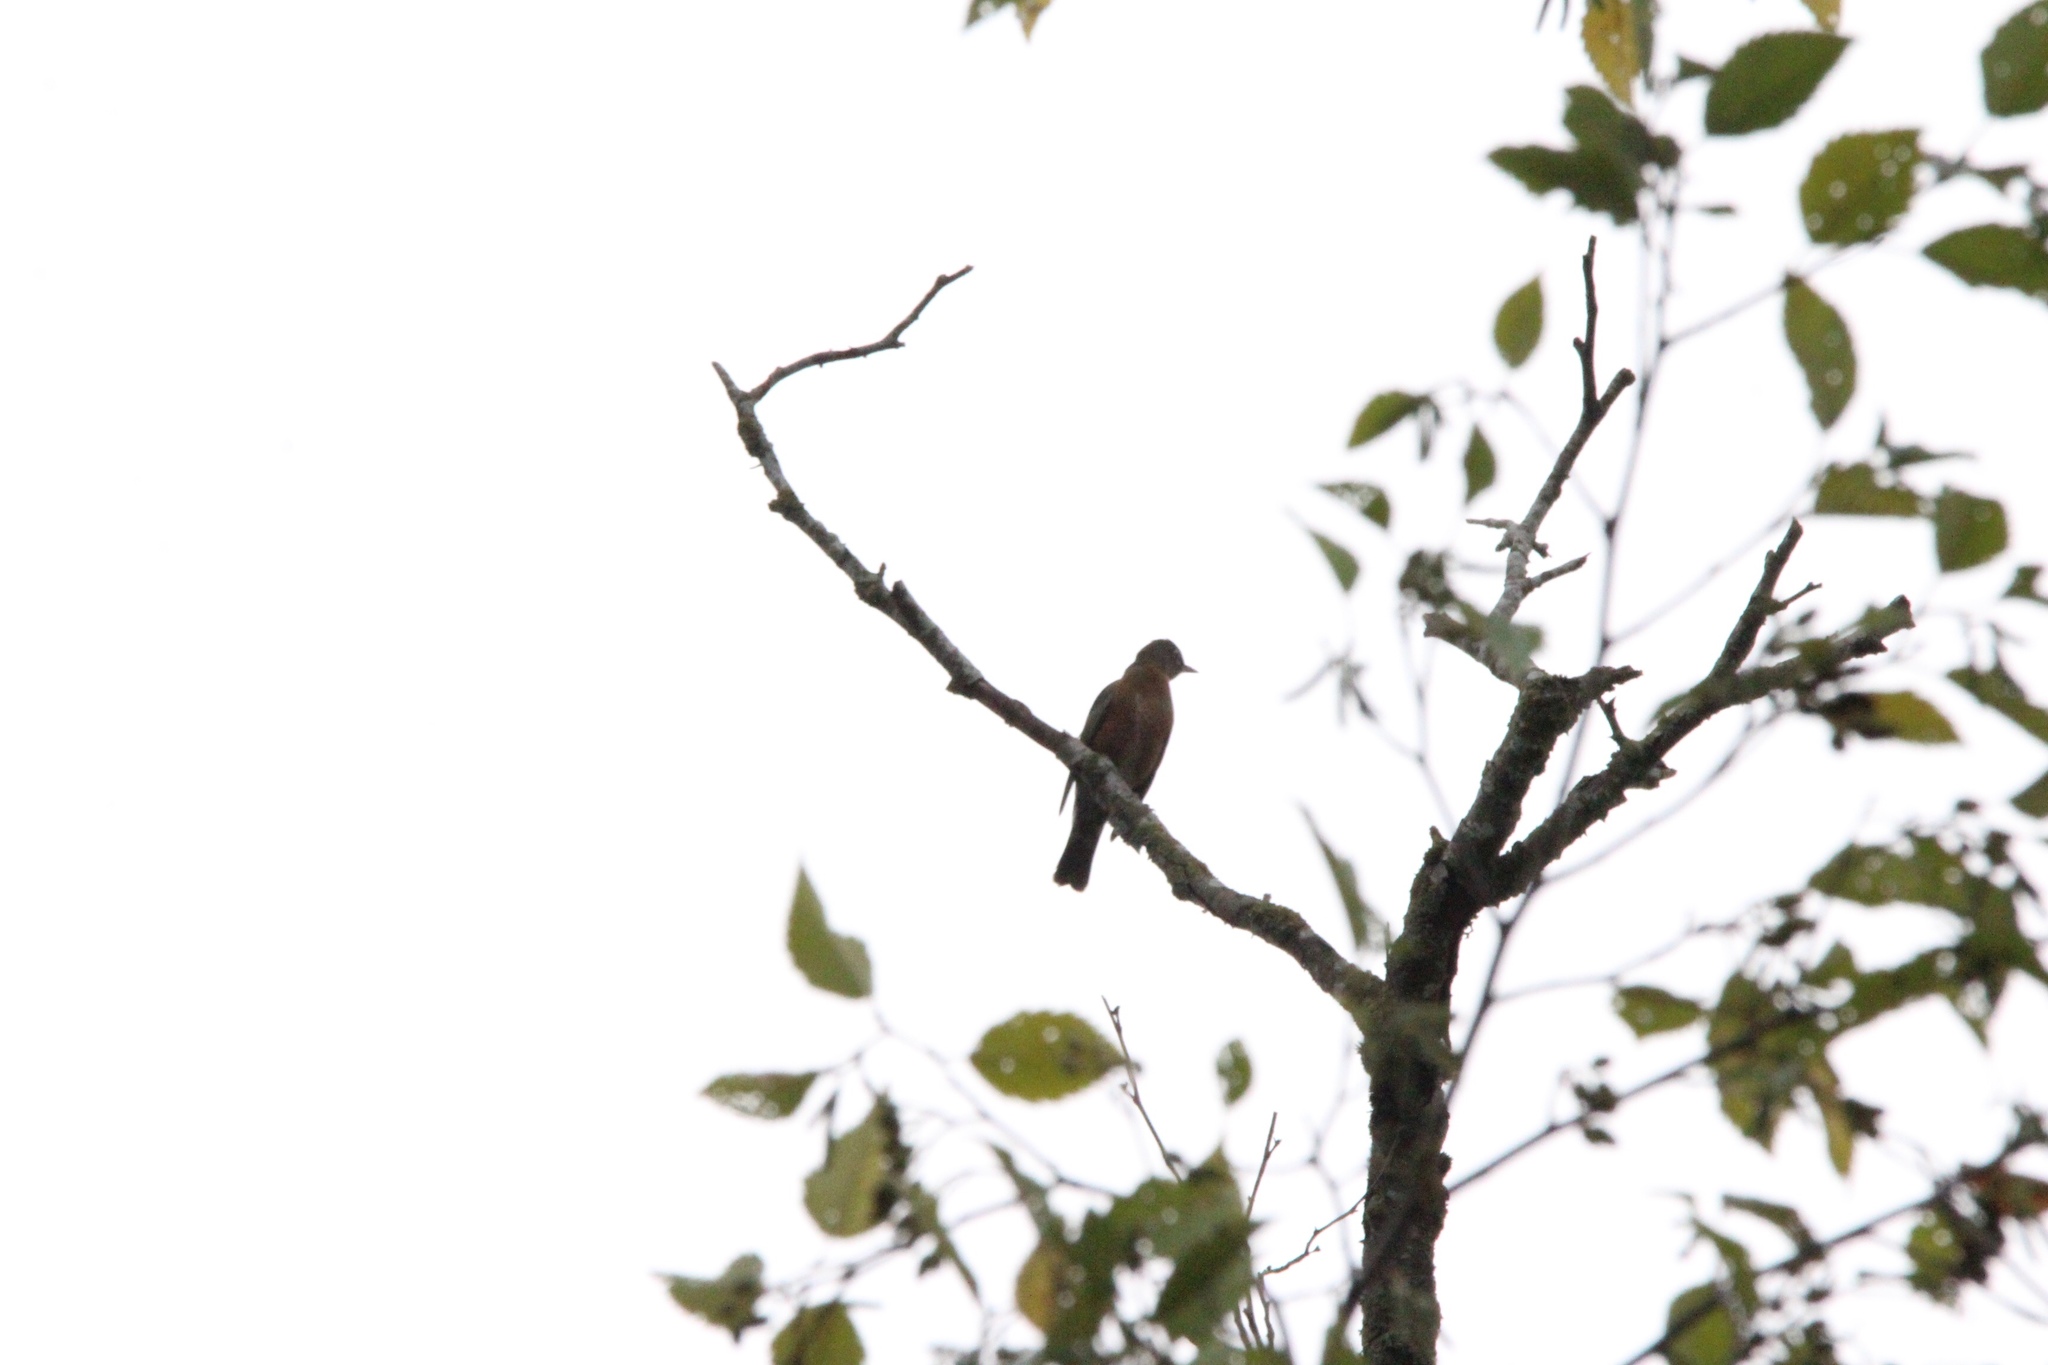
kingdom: Animalia
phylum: Chordata
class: Aves
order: Passeriformes
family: Turdidae
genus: Turdus
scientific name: Turdus migratorius
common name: American robin
